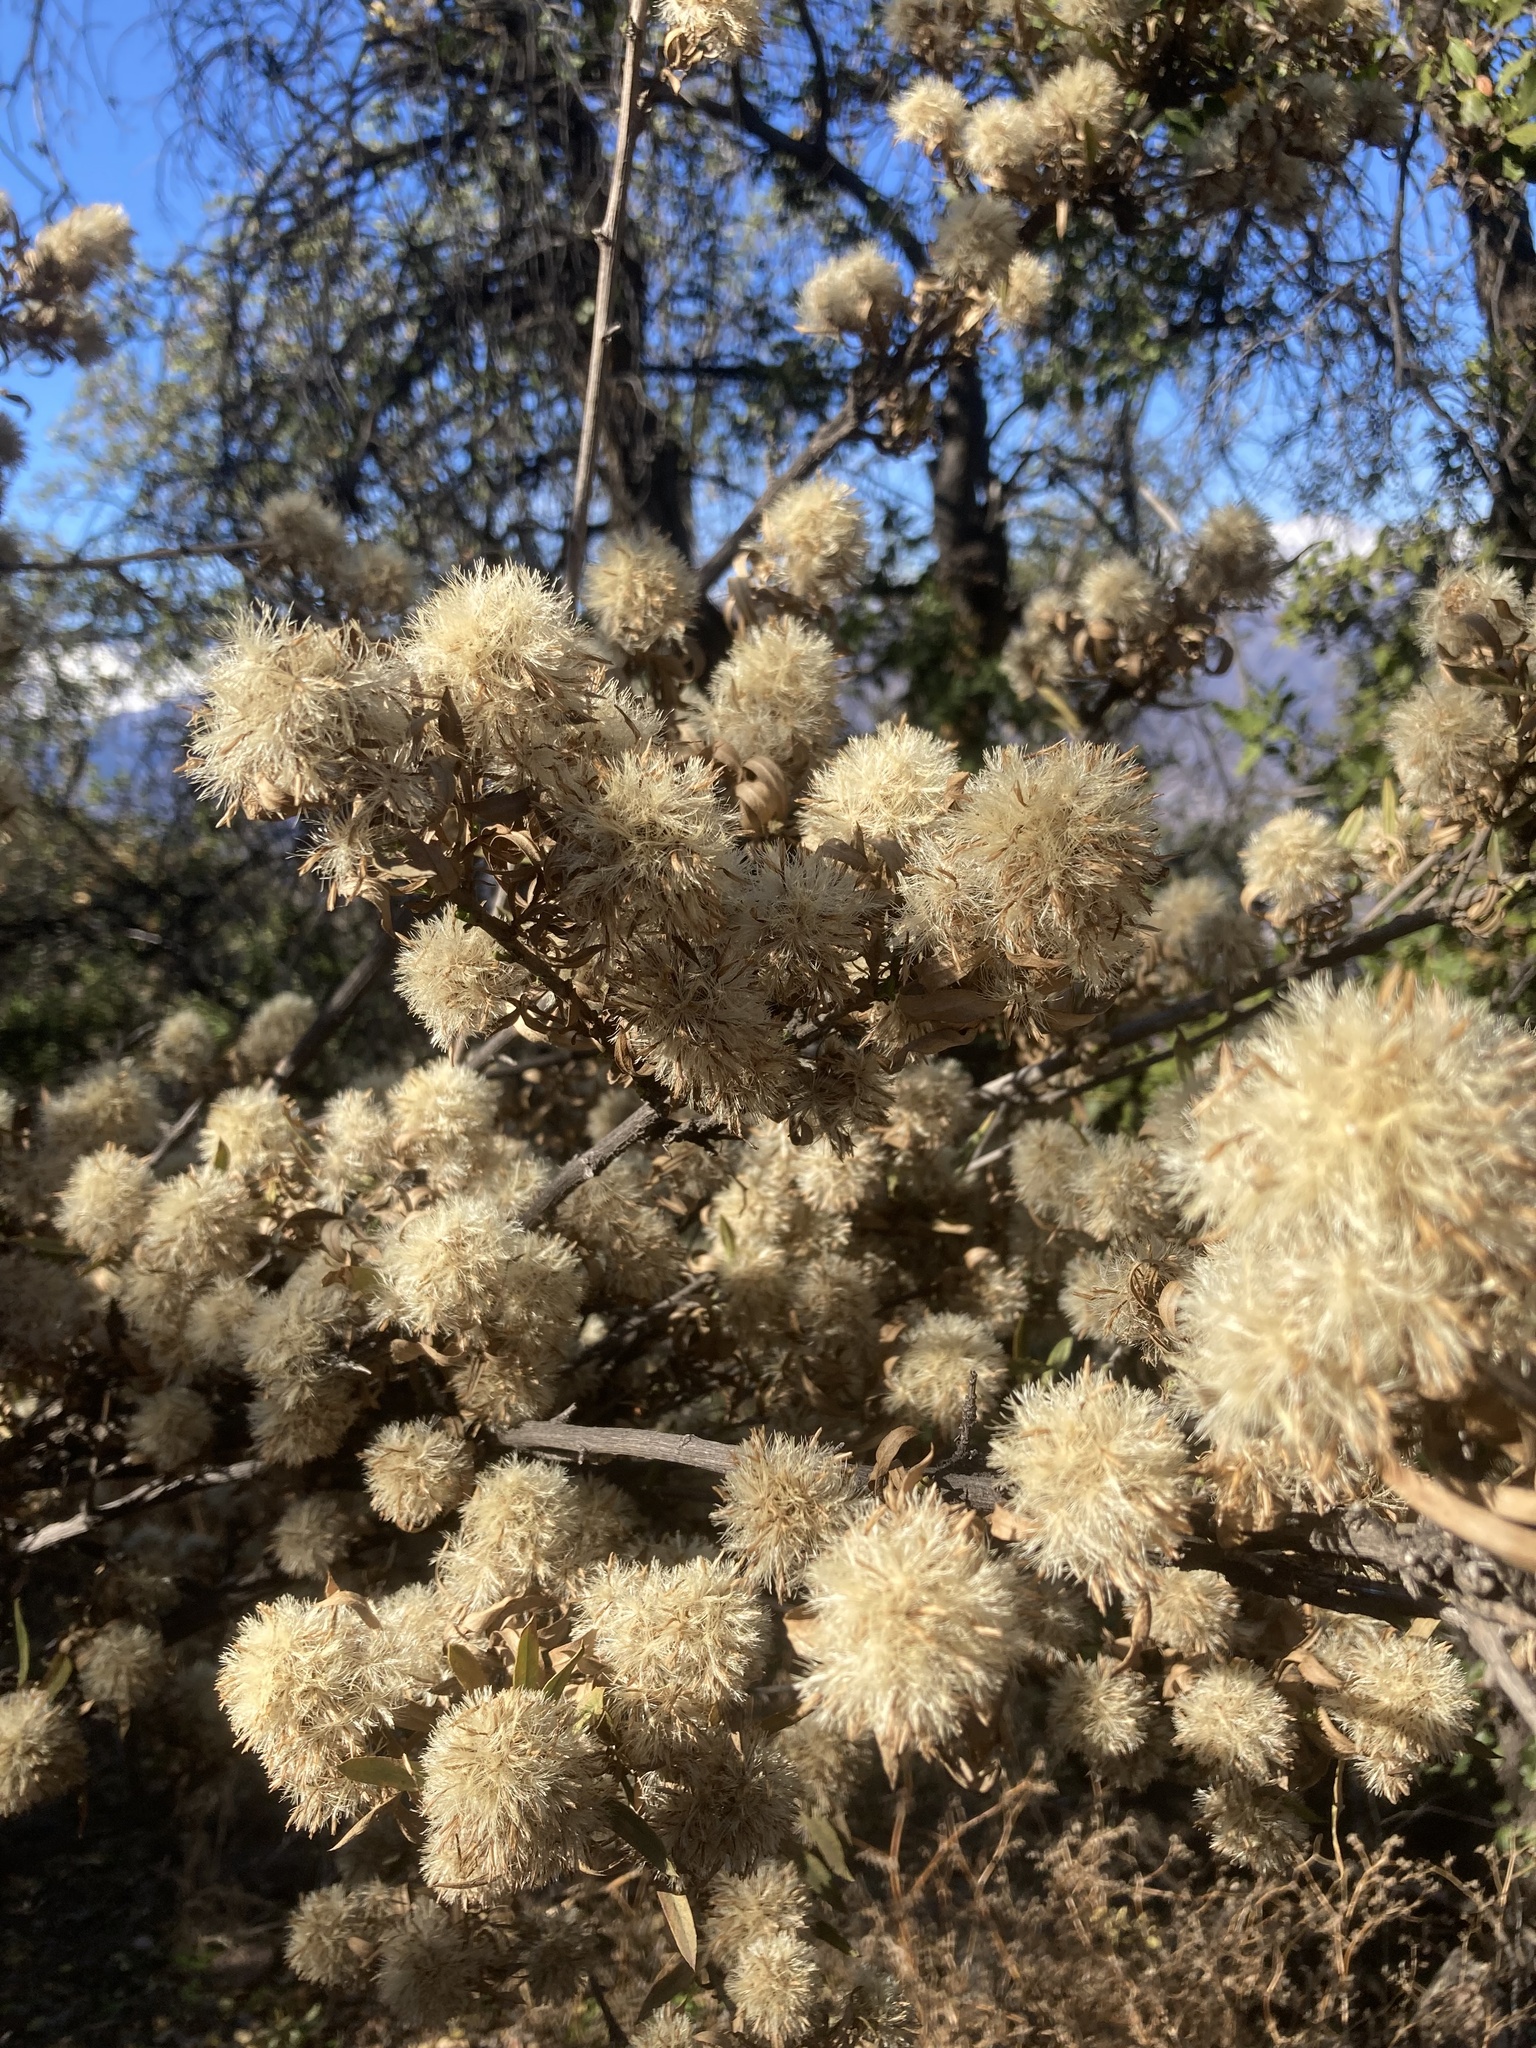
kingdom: Plantae
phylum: Tracheophyta
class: Magnoliopsida
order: Asterales
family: Asteraceae
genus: Gochnatia
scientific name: Gochnatia foliolosa
